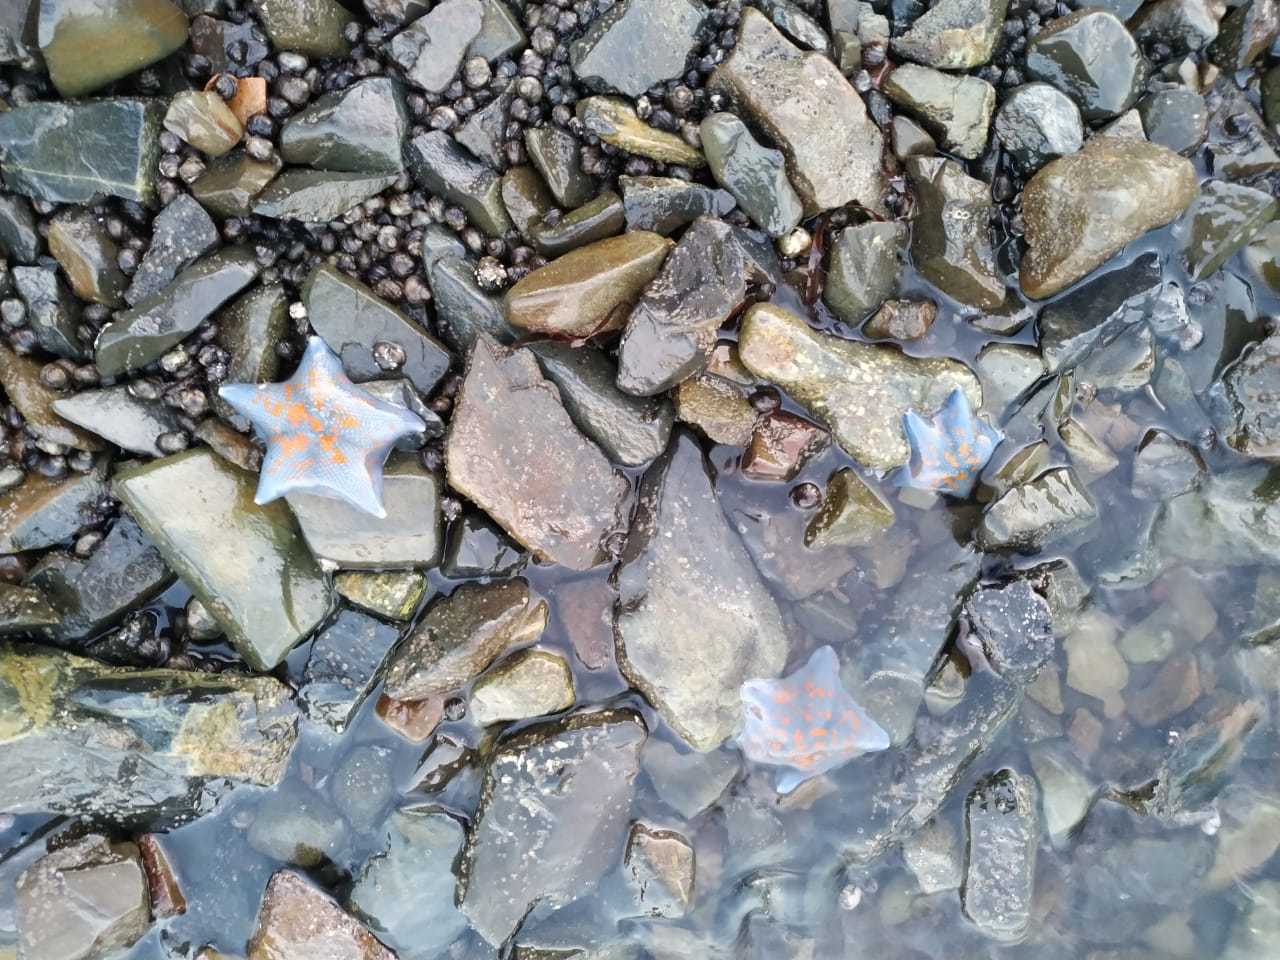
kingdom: Animalia
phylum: Echinodermata
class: Asteroidea
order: Valvatida
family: Asterinidae
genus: Patiria
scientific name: Patiria pectinifera
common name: Blue bat star
